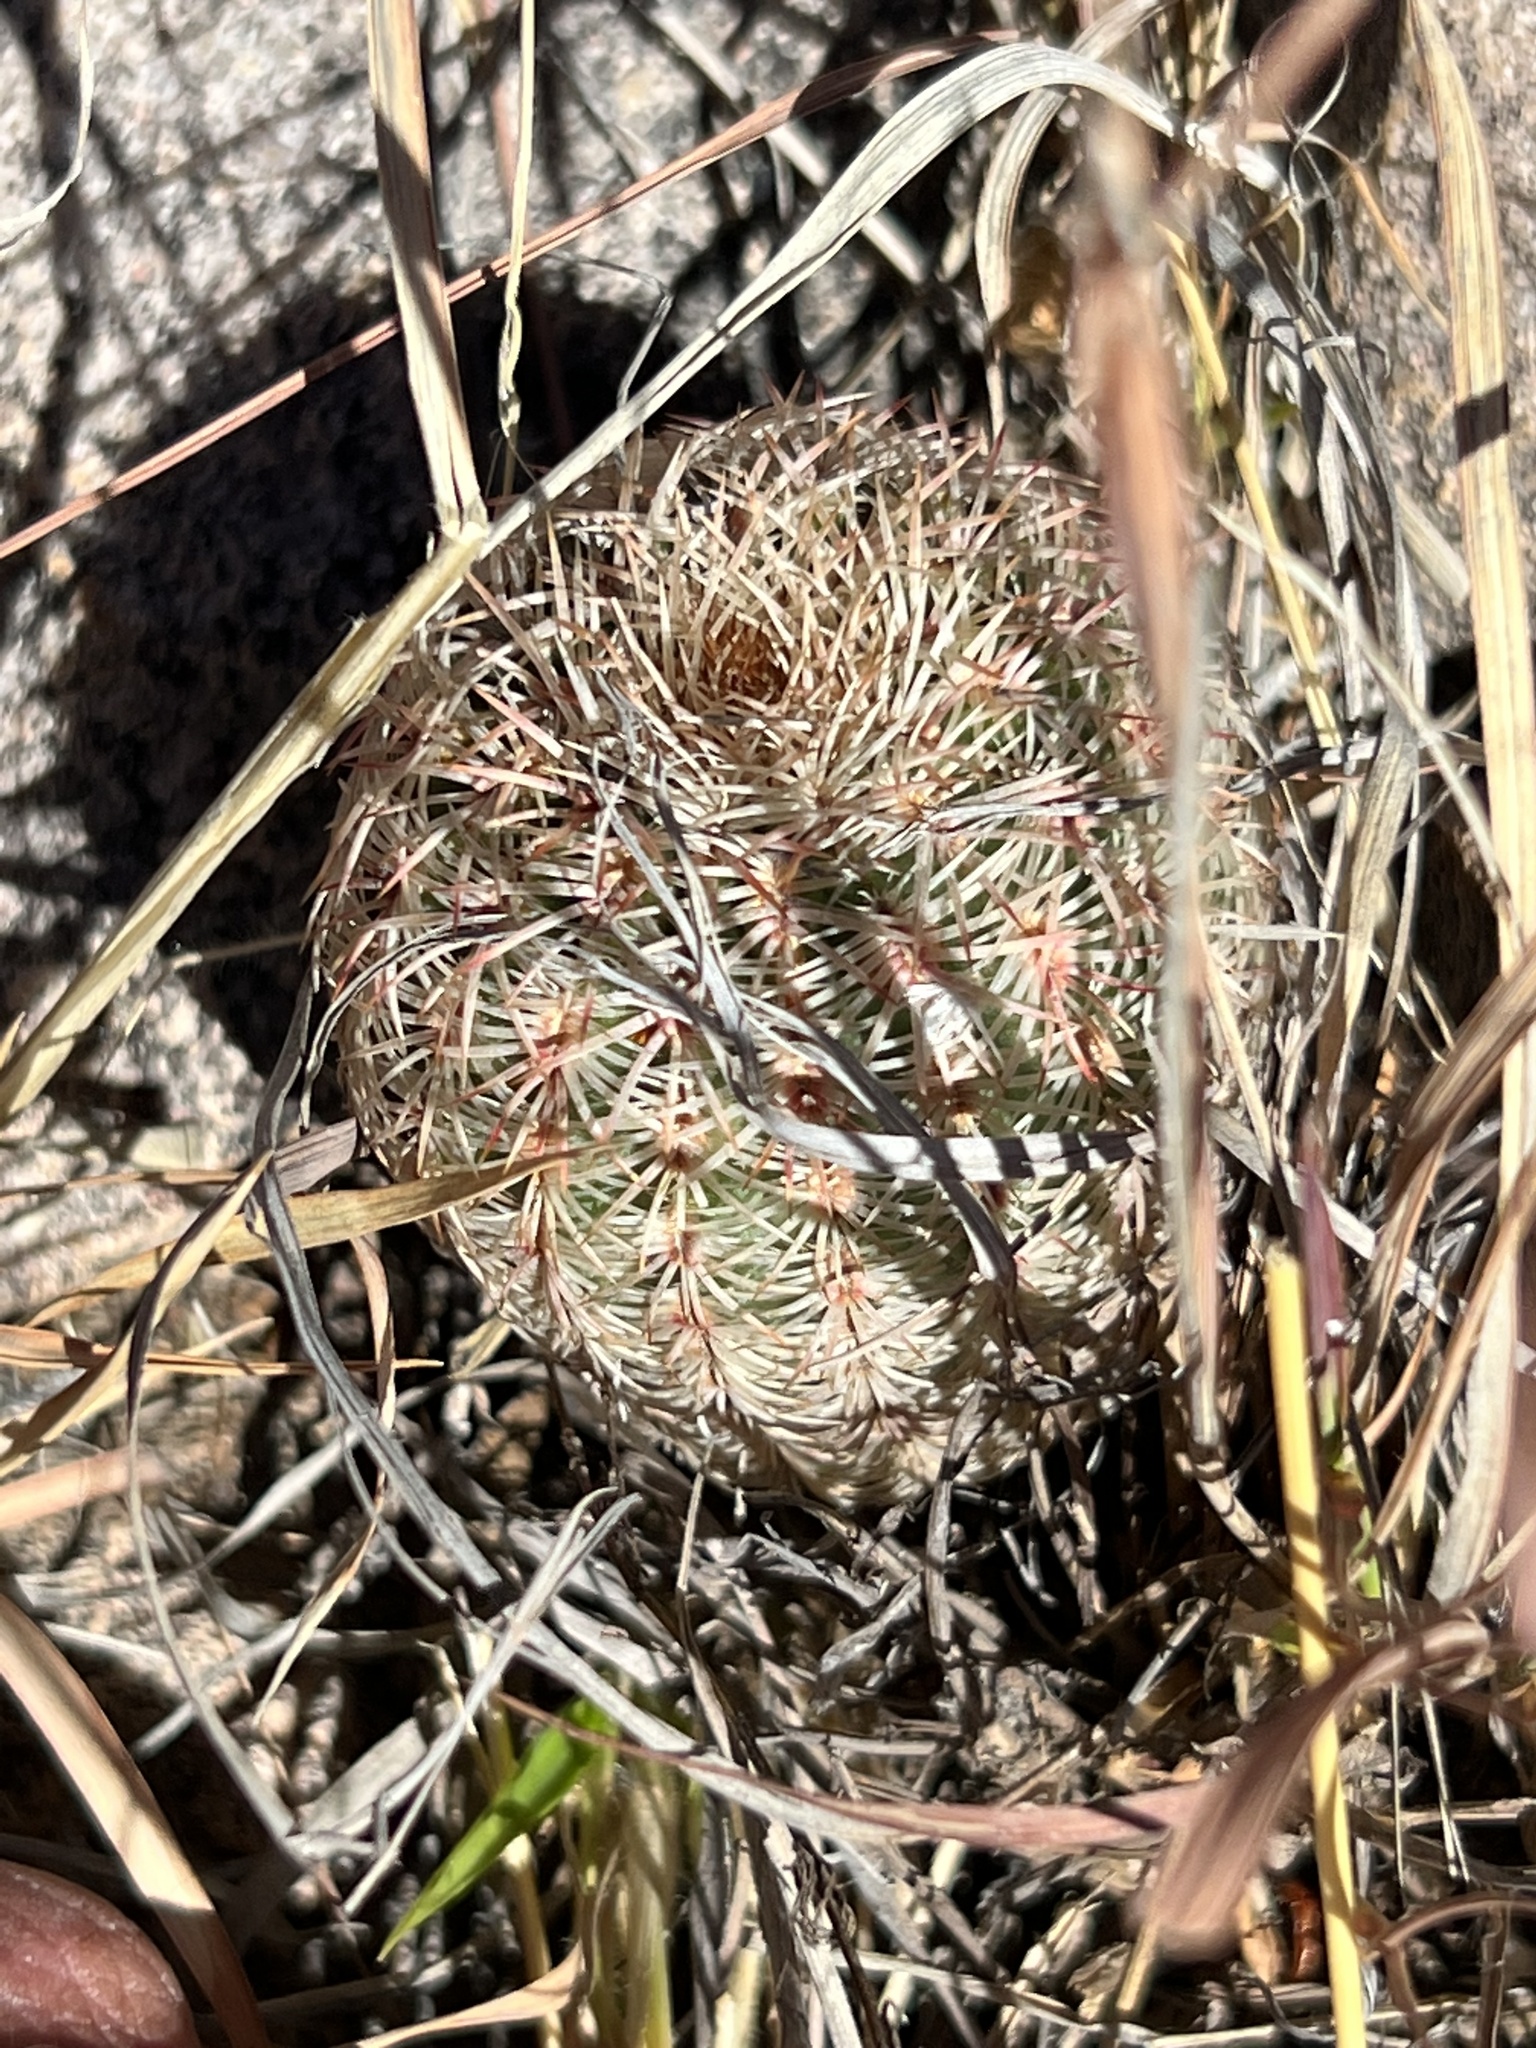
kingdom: Plantae
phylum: Tracheophyta
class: Magnoliopsida
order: Caryophyllales
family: Cactaceae
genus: Echinocereus
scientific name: Echinocereus rigidissimus
